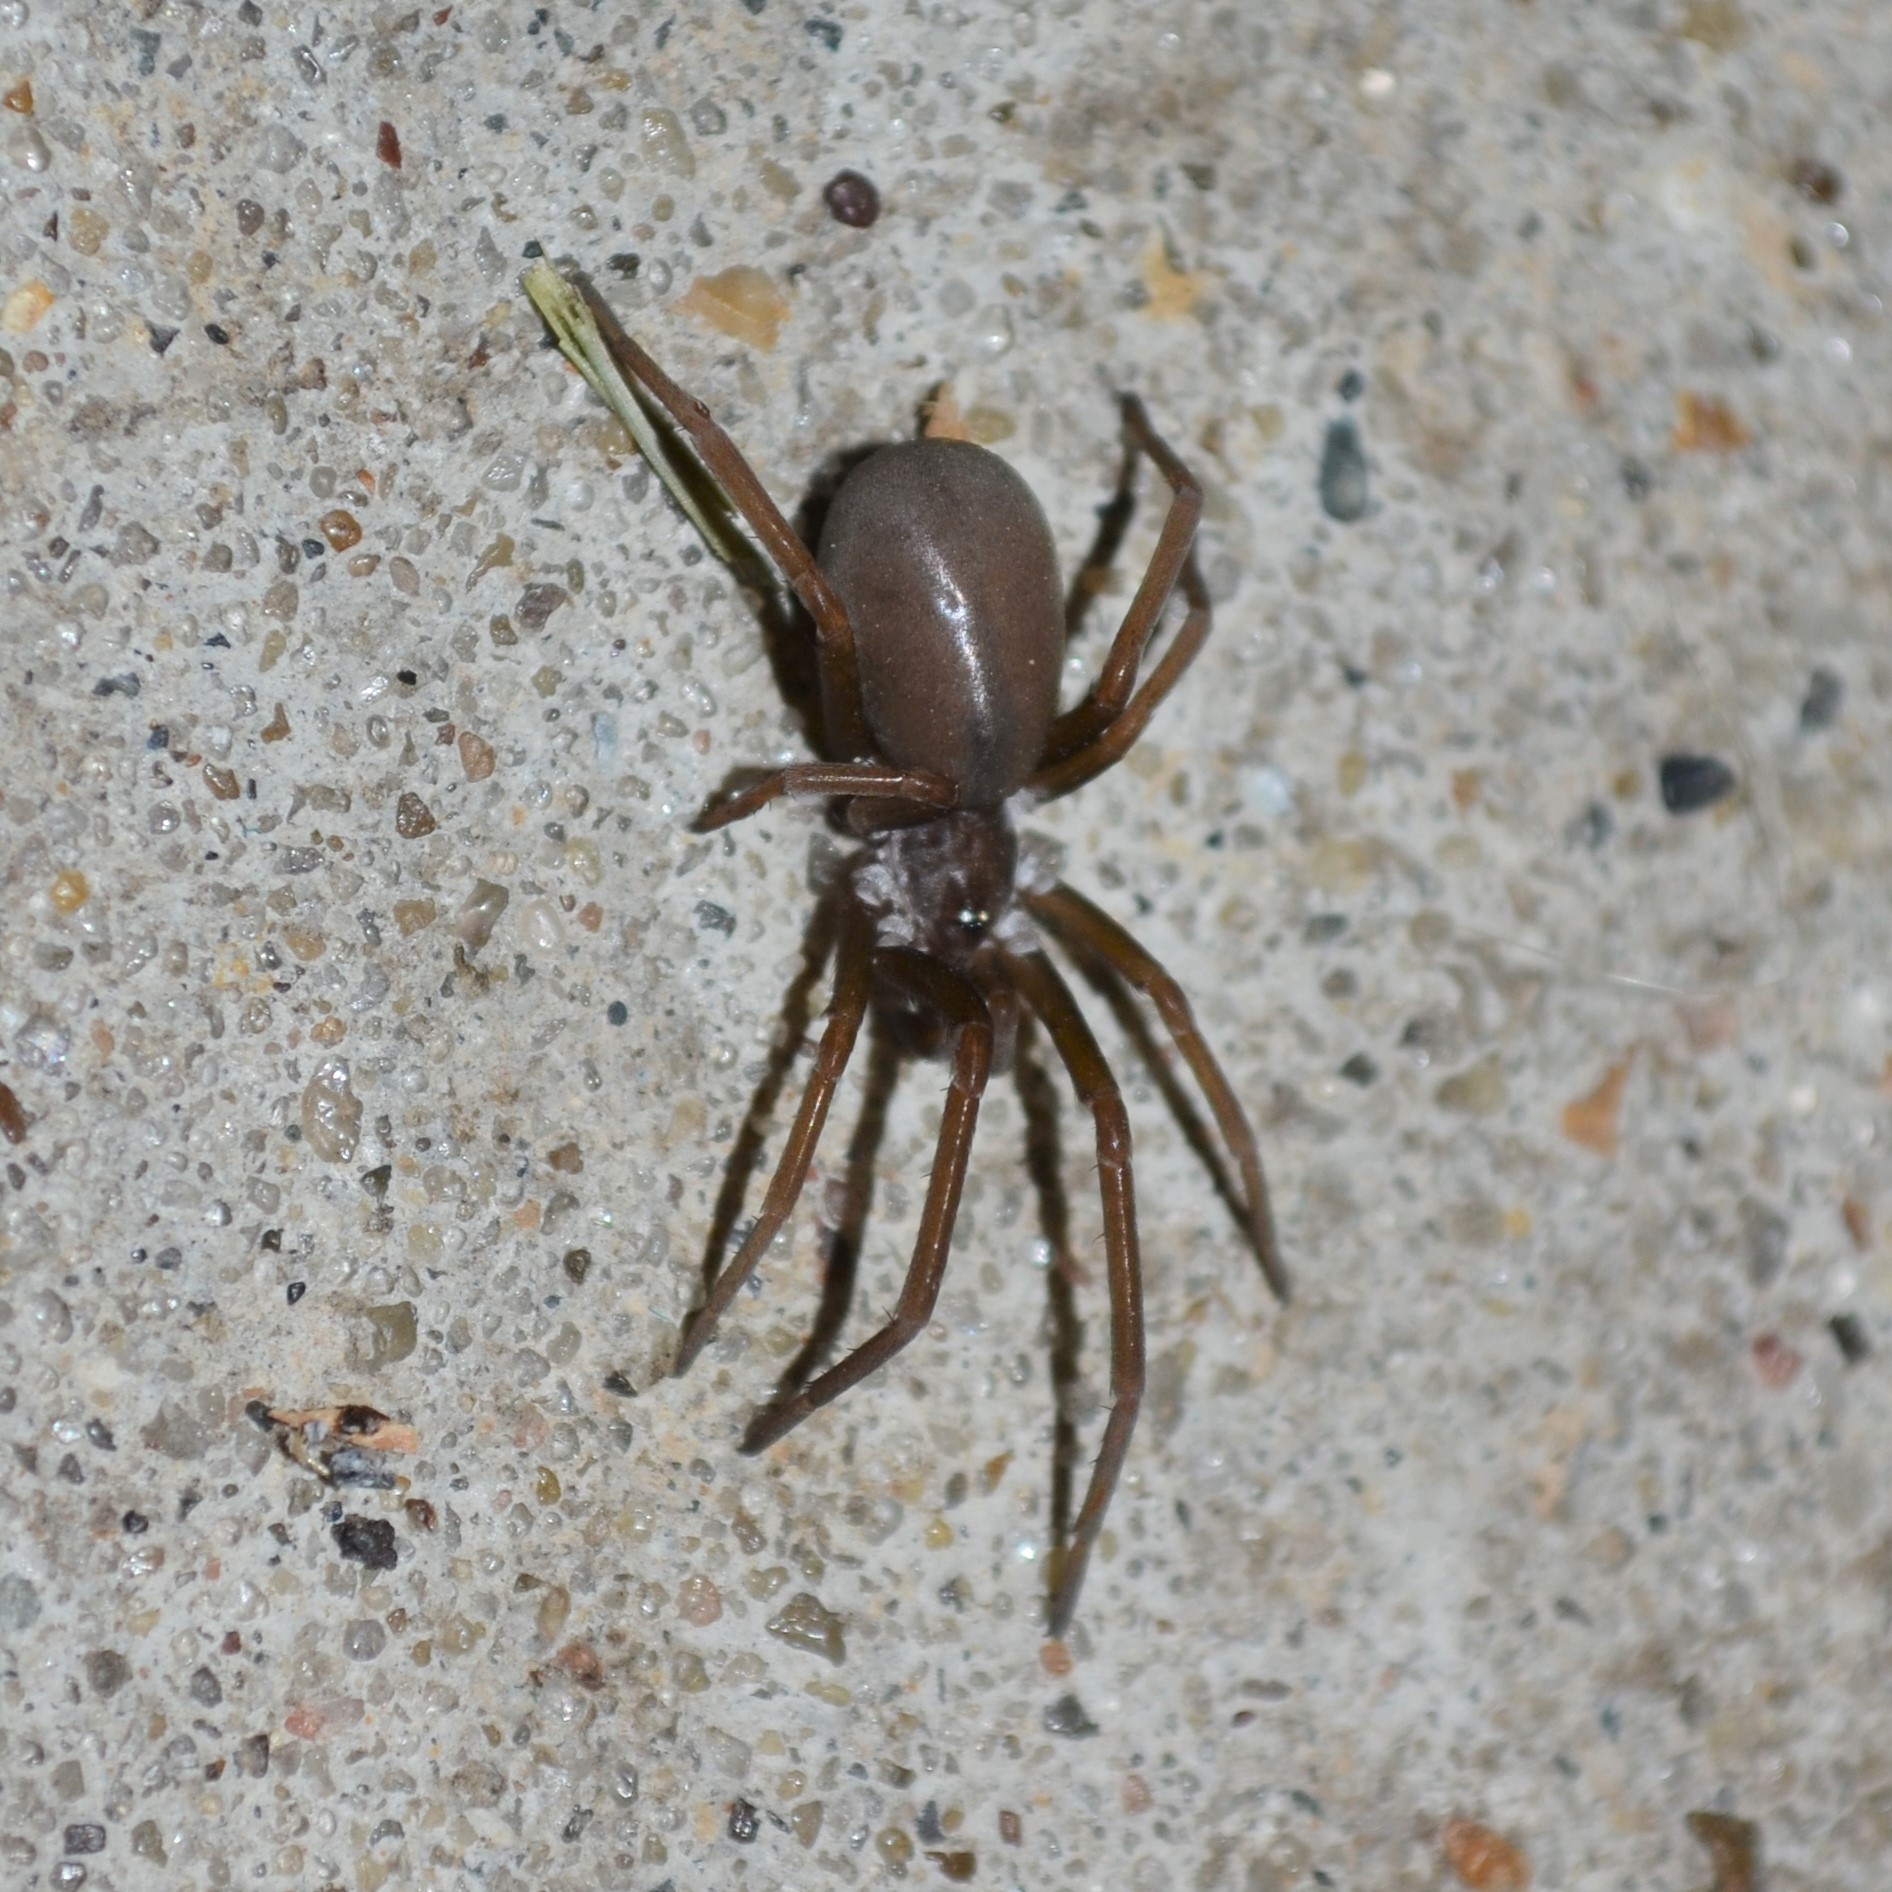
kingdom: Animalia
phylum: Arthropoda
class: Arachnida
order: Araneae
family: Filistatidae
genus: Kukulcania
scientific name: Kukulcania hibernalis
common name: Crevice weaver
